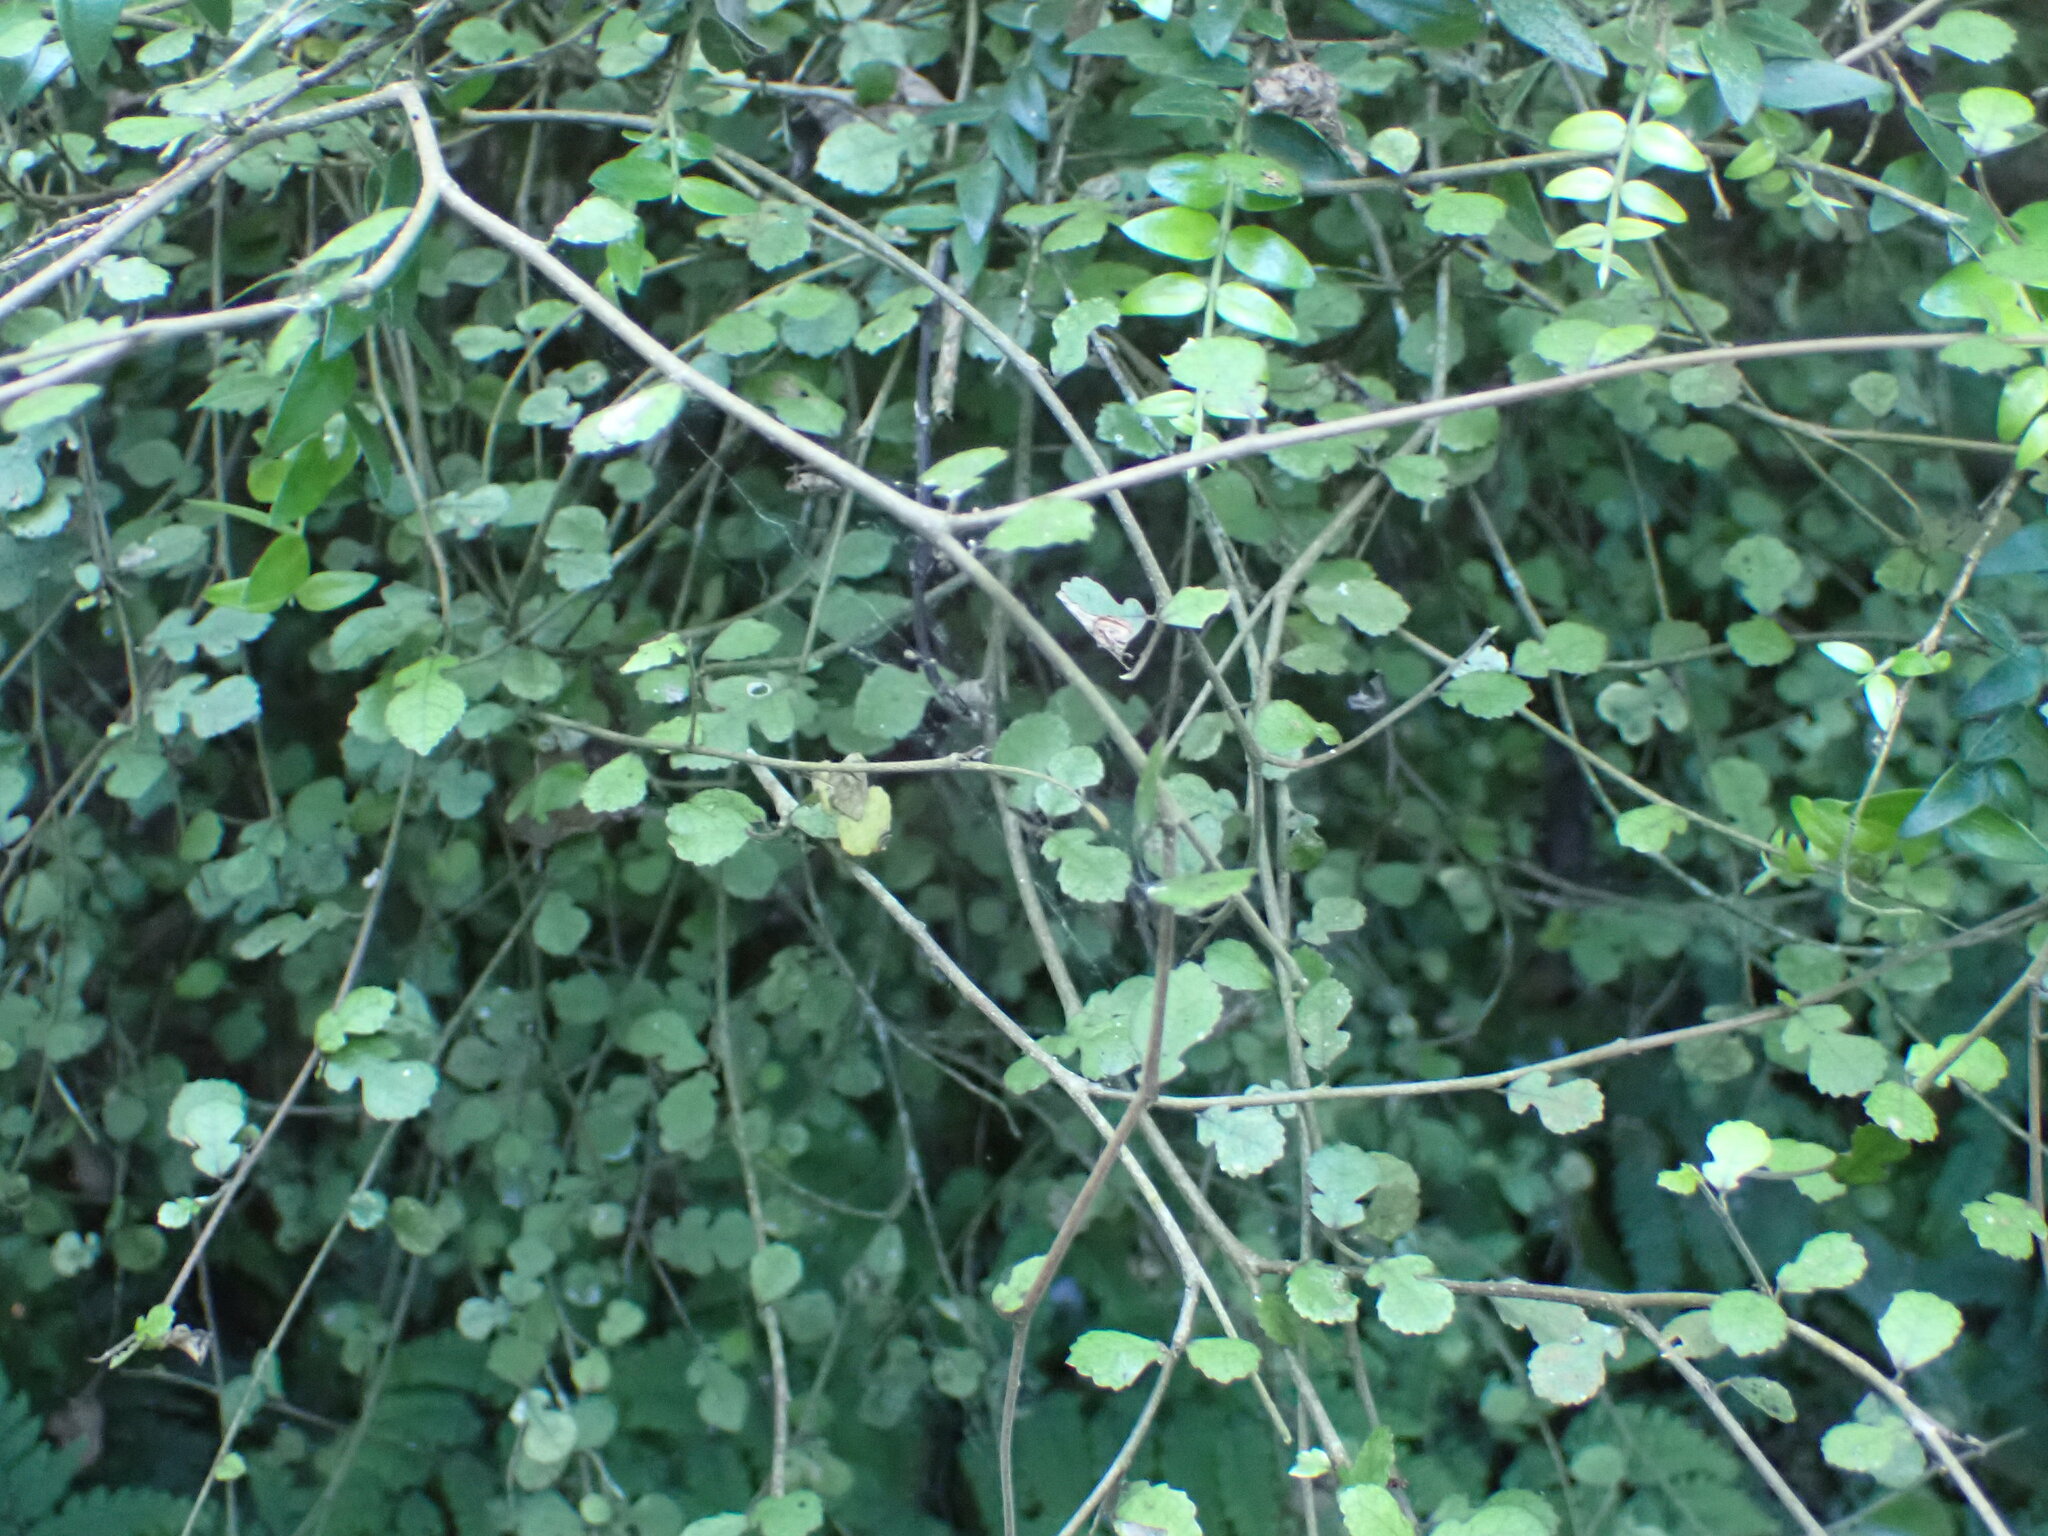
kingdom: Plantae
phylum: Tracheophyta
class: Magnoliopsida
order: Rosales
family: Moraceae
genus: Paratrophis
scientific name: Paratrophis microphylla
